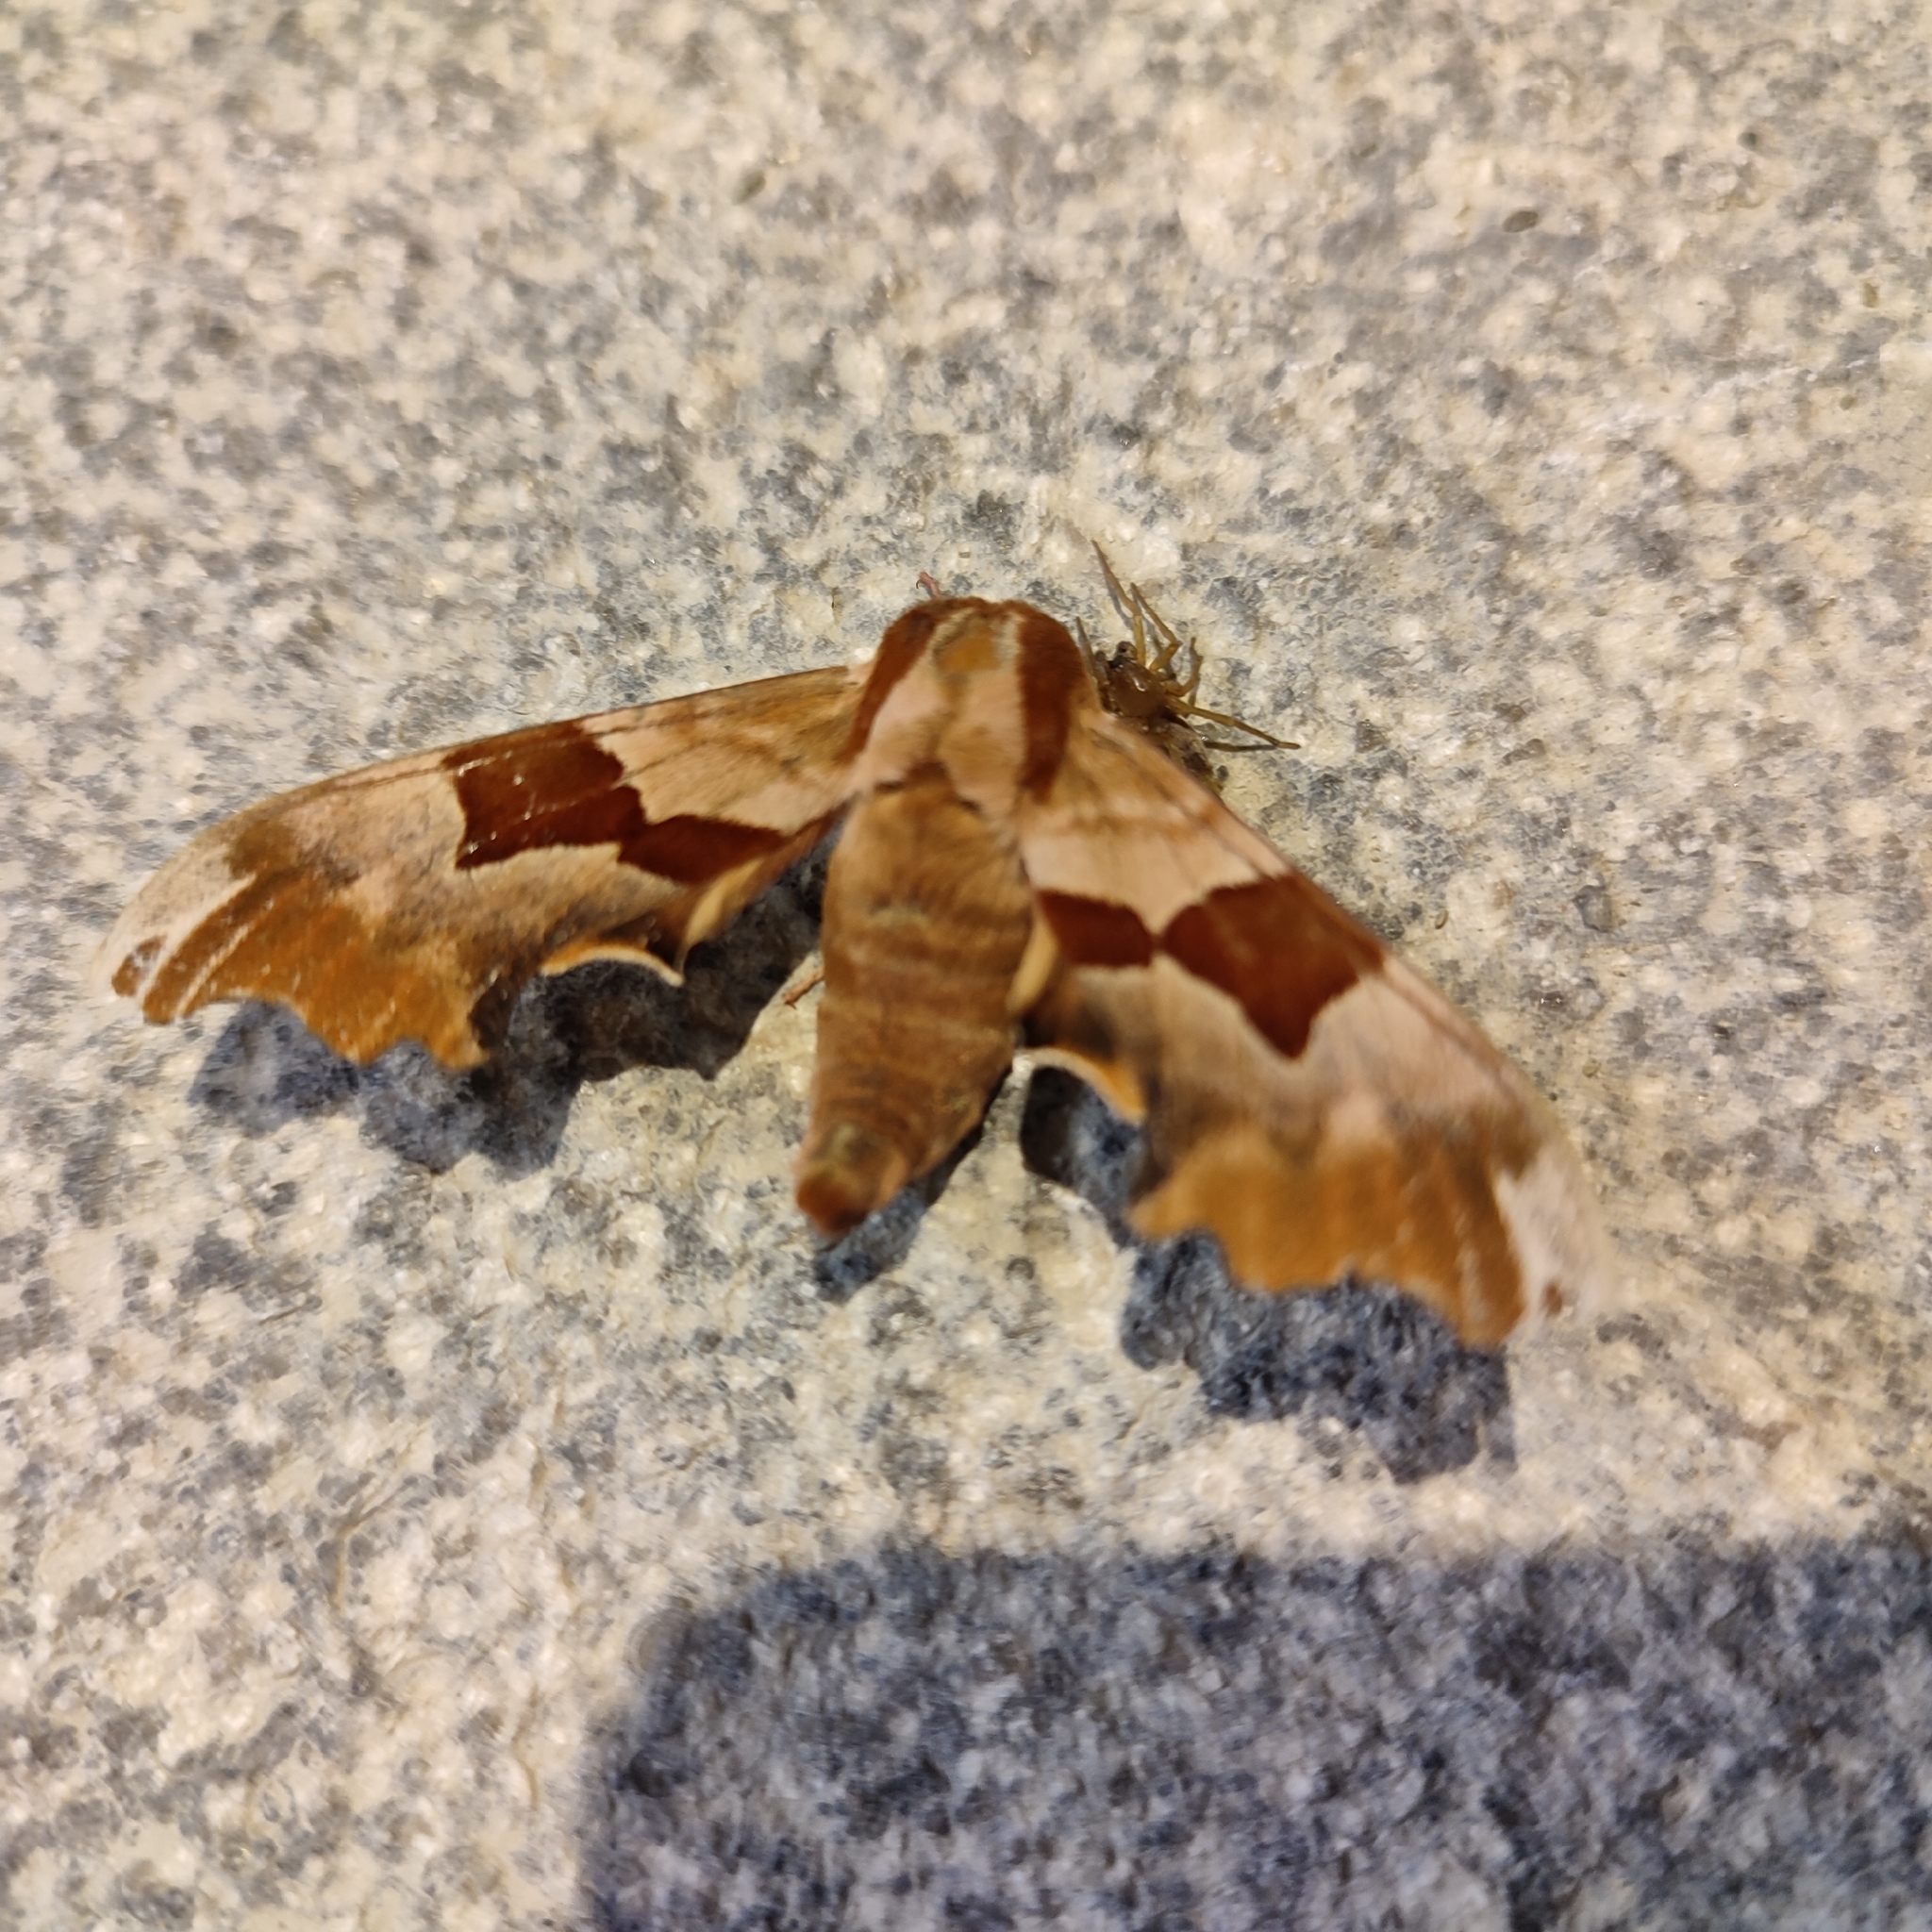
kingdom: Animalia
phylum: Arthropoda
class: Insecta
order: Lepidoptera
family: Sphingidae
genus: Mimas
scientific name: Mimas tiliae
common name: Lime hawk-moth
